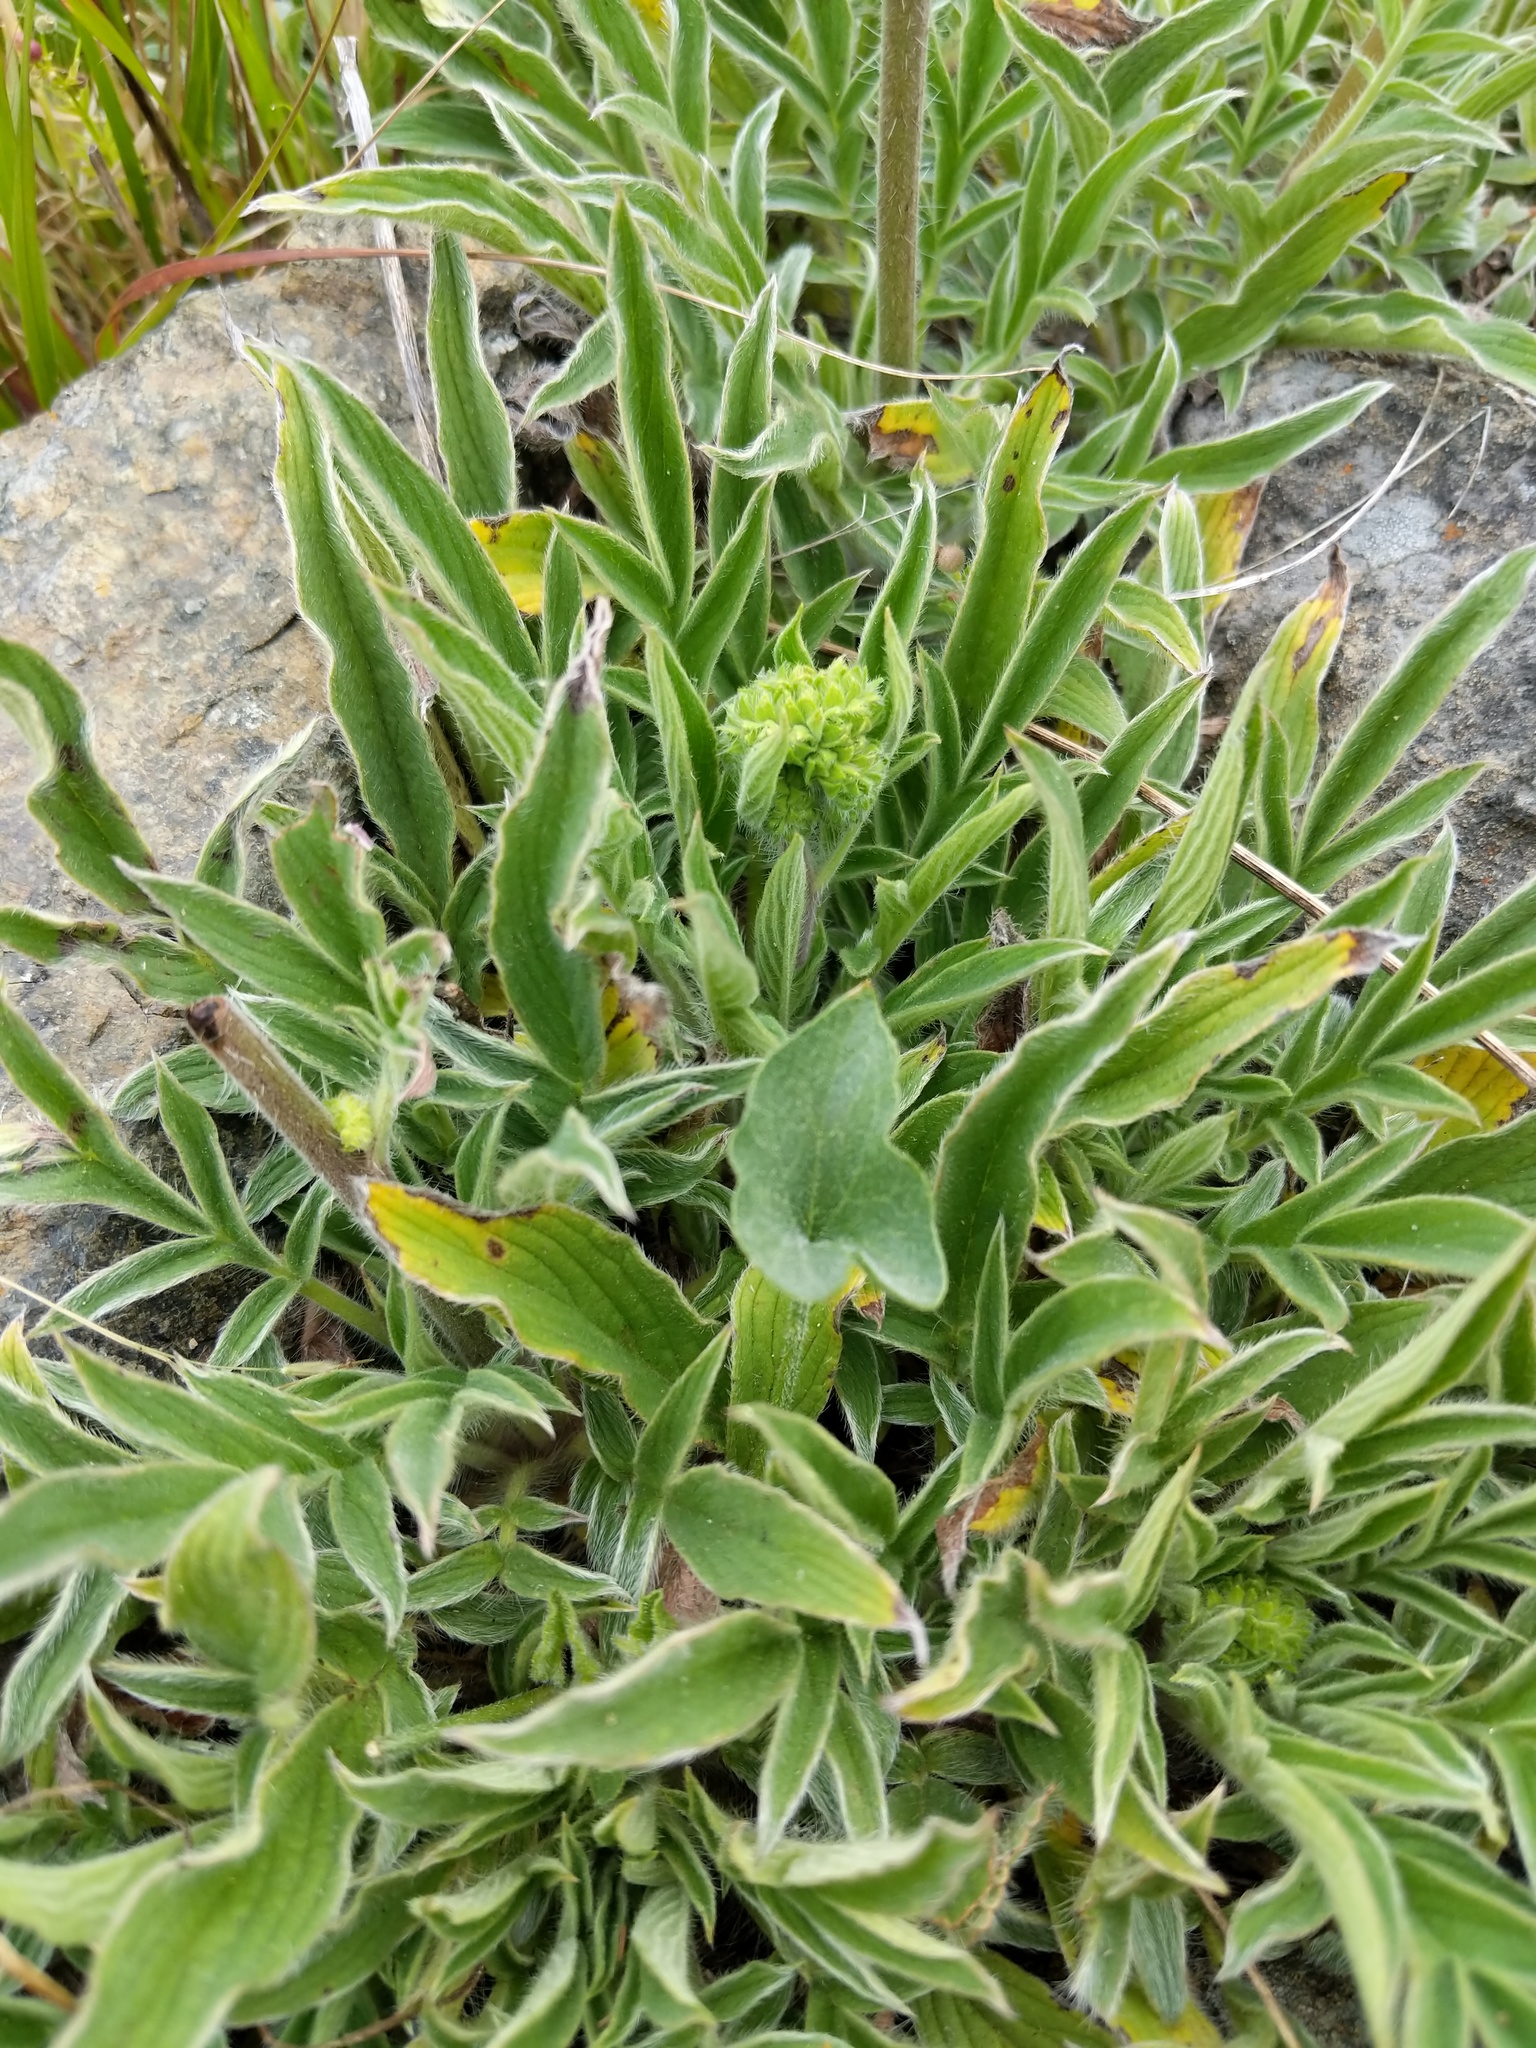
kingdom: Plantae
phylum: Tracheophyta
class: Magnoliopsida
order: Boraginales
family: Hydrophyllaceae
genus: Phacelia
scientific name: Phacelia imbricata
